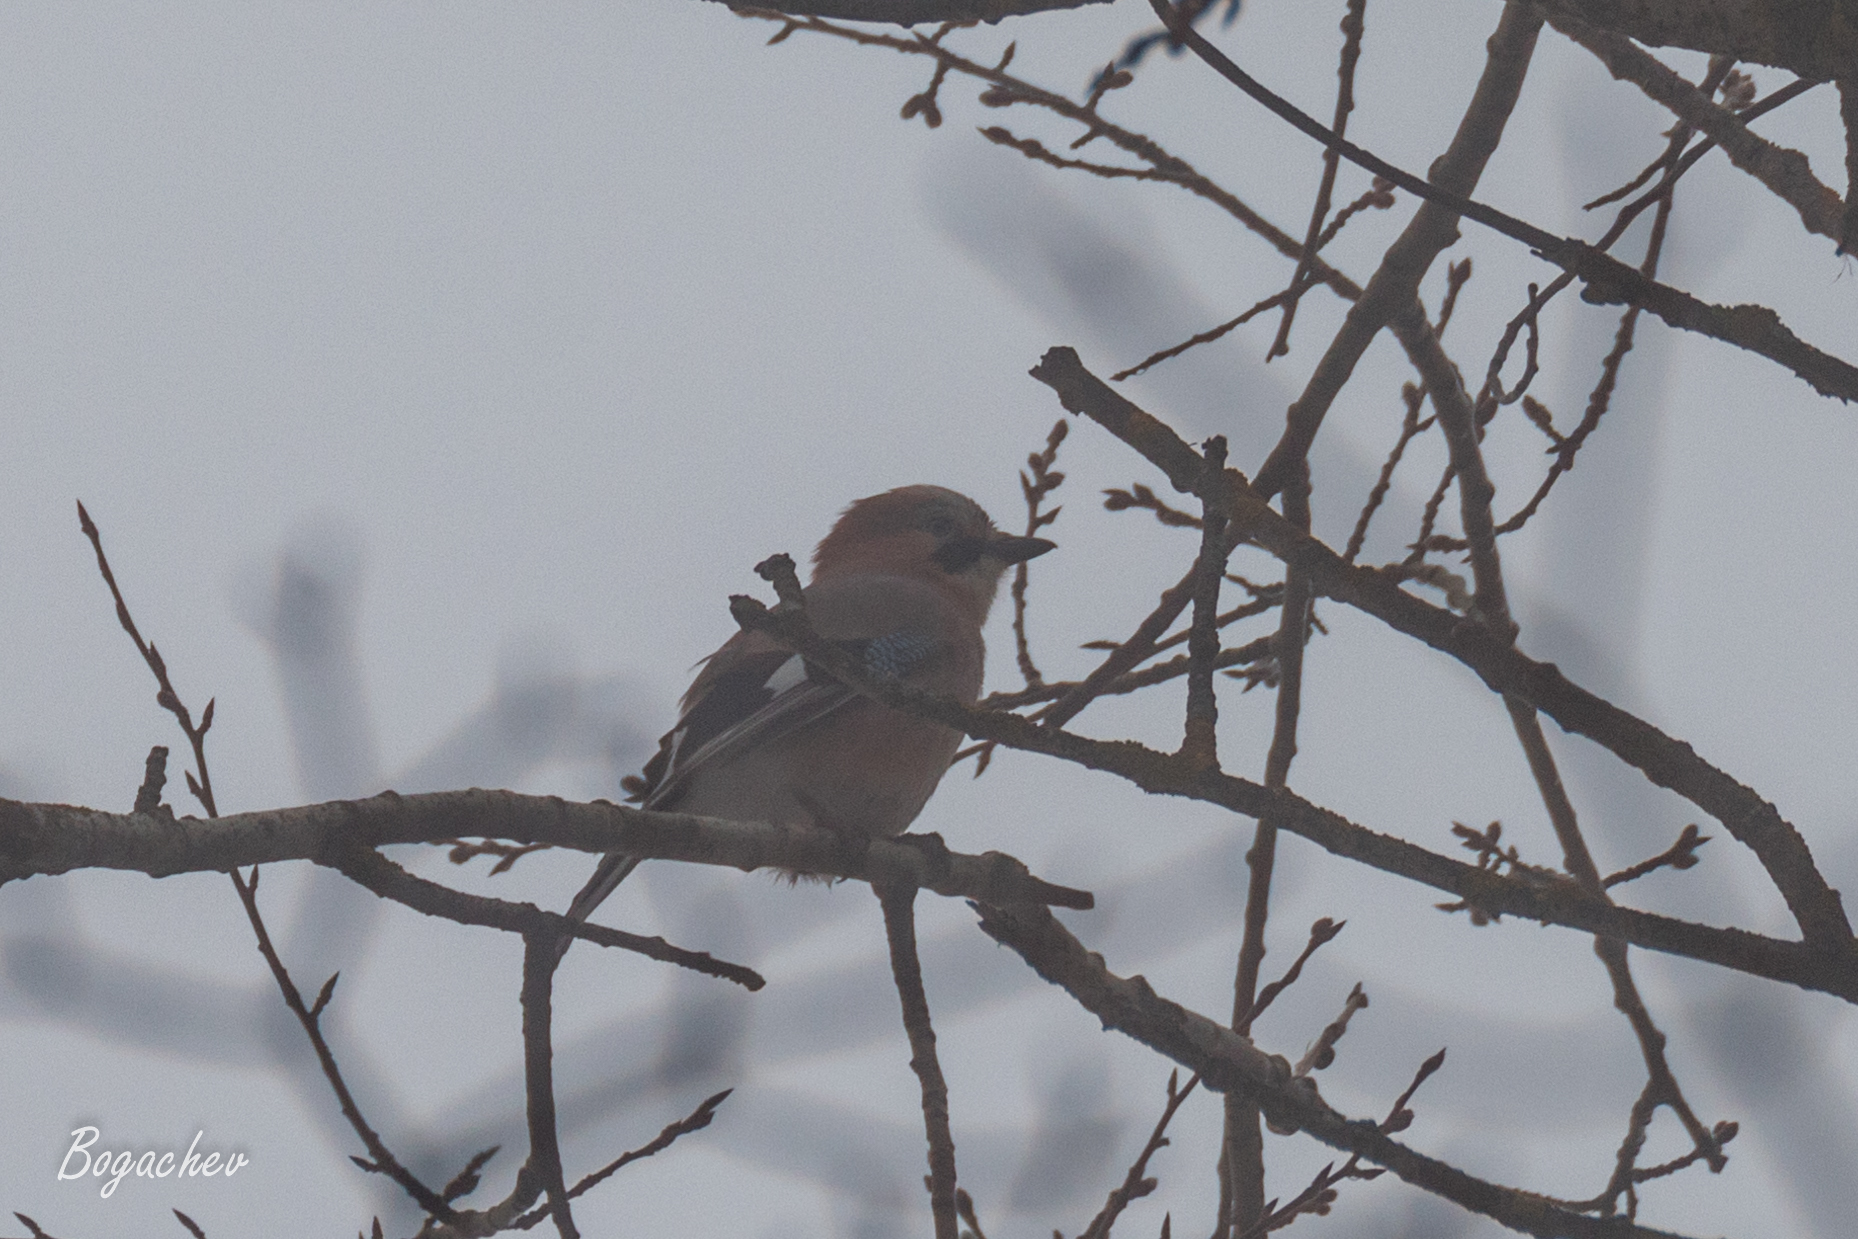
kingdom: Animalia
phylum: Chordata
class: Aves
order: Passeriformes
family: Corvidae
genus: Garrulus
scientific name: Garrulus glandarius
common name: Eurasian jay
